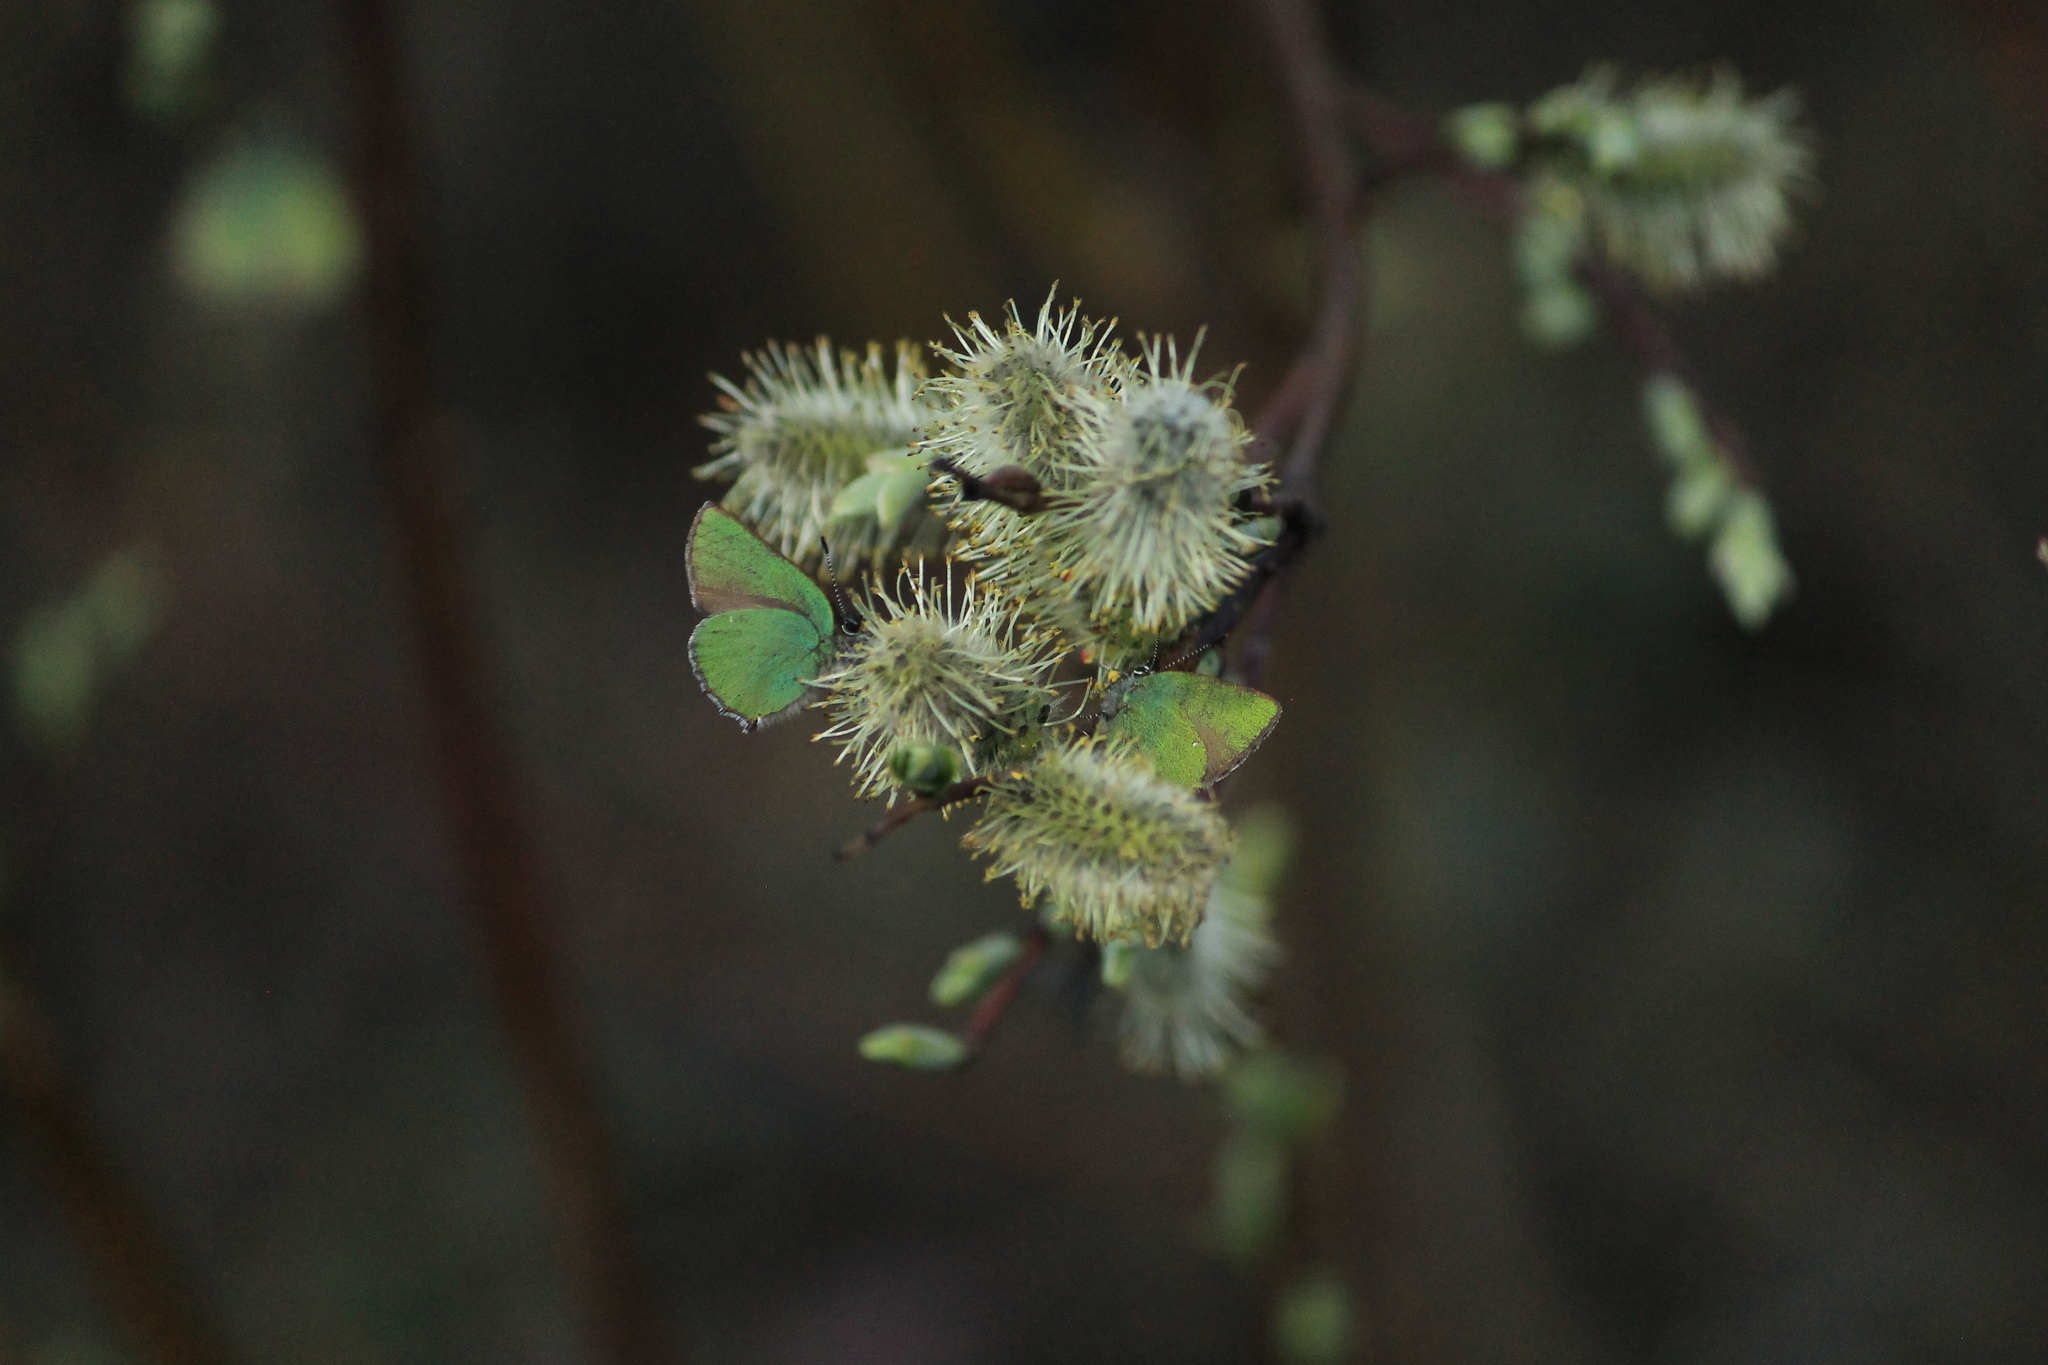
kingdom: Animalia
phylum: Arthropoda
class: Insecta
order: Lepidoptera
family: Lycaenidae
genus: Callophrys
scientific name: Callophrys rubi
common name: Green hairstreak
